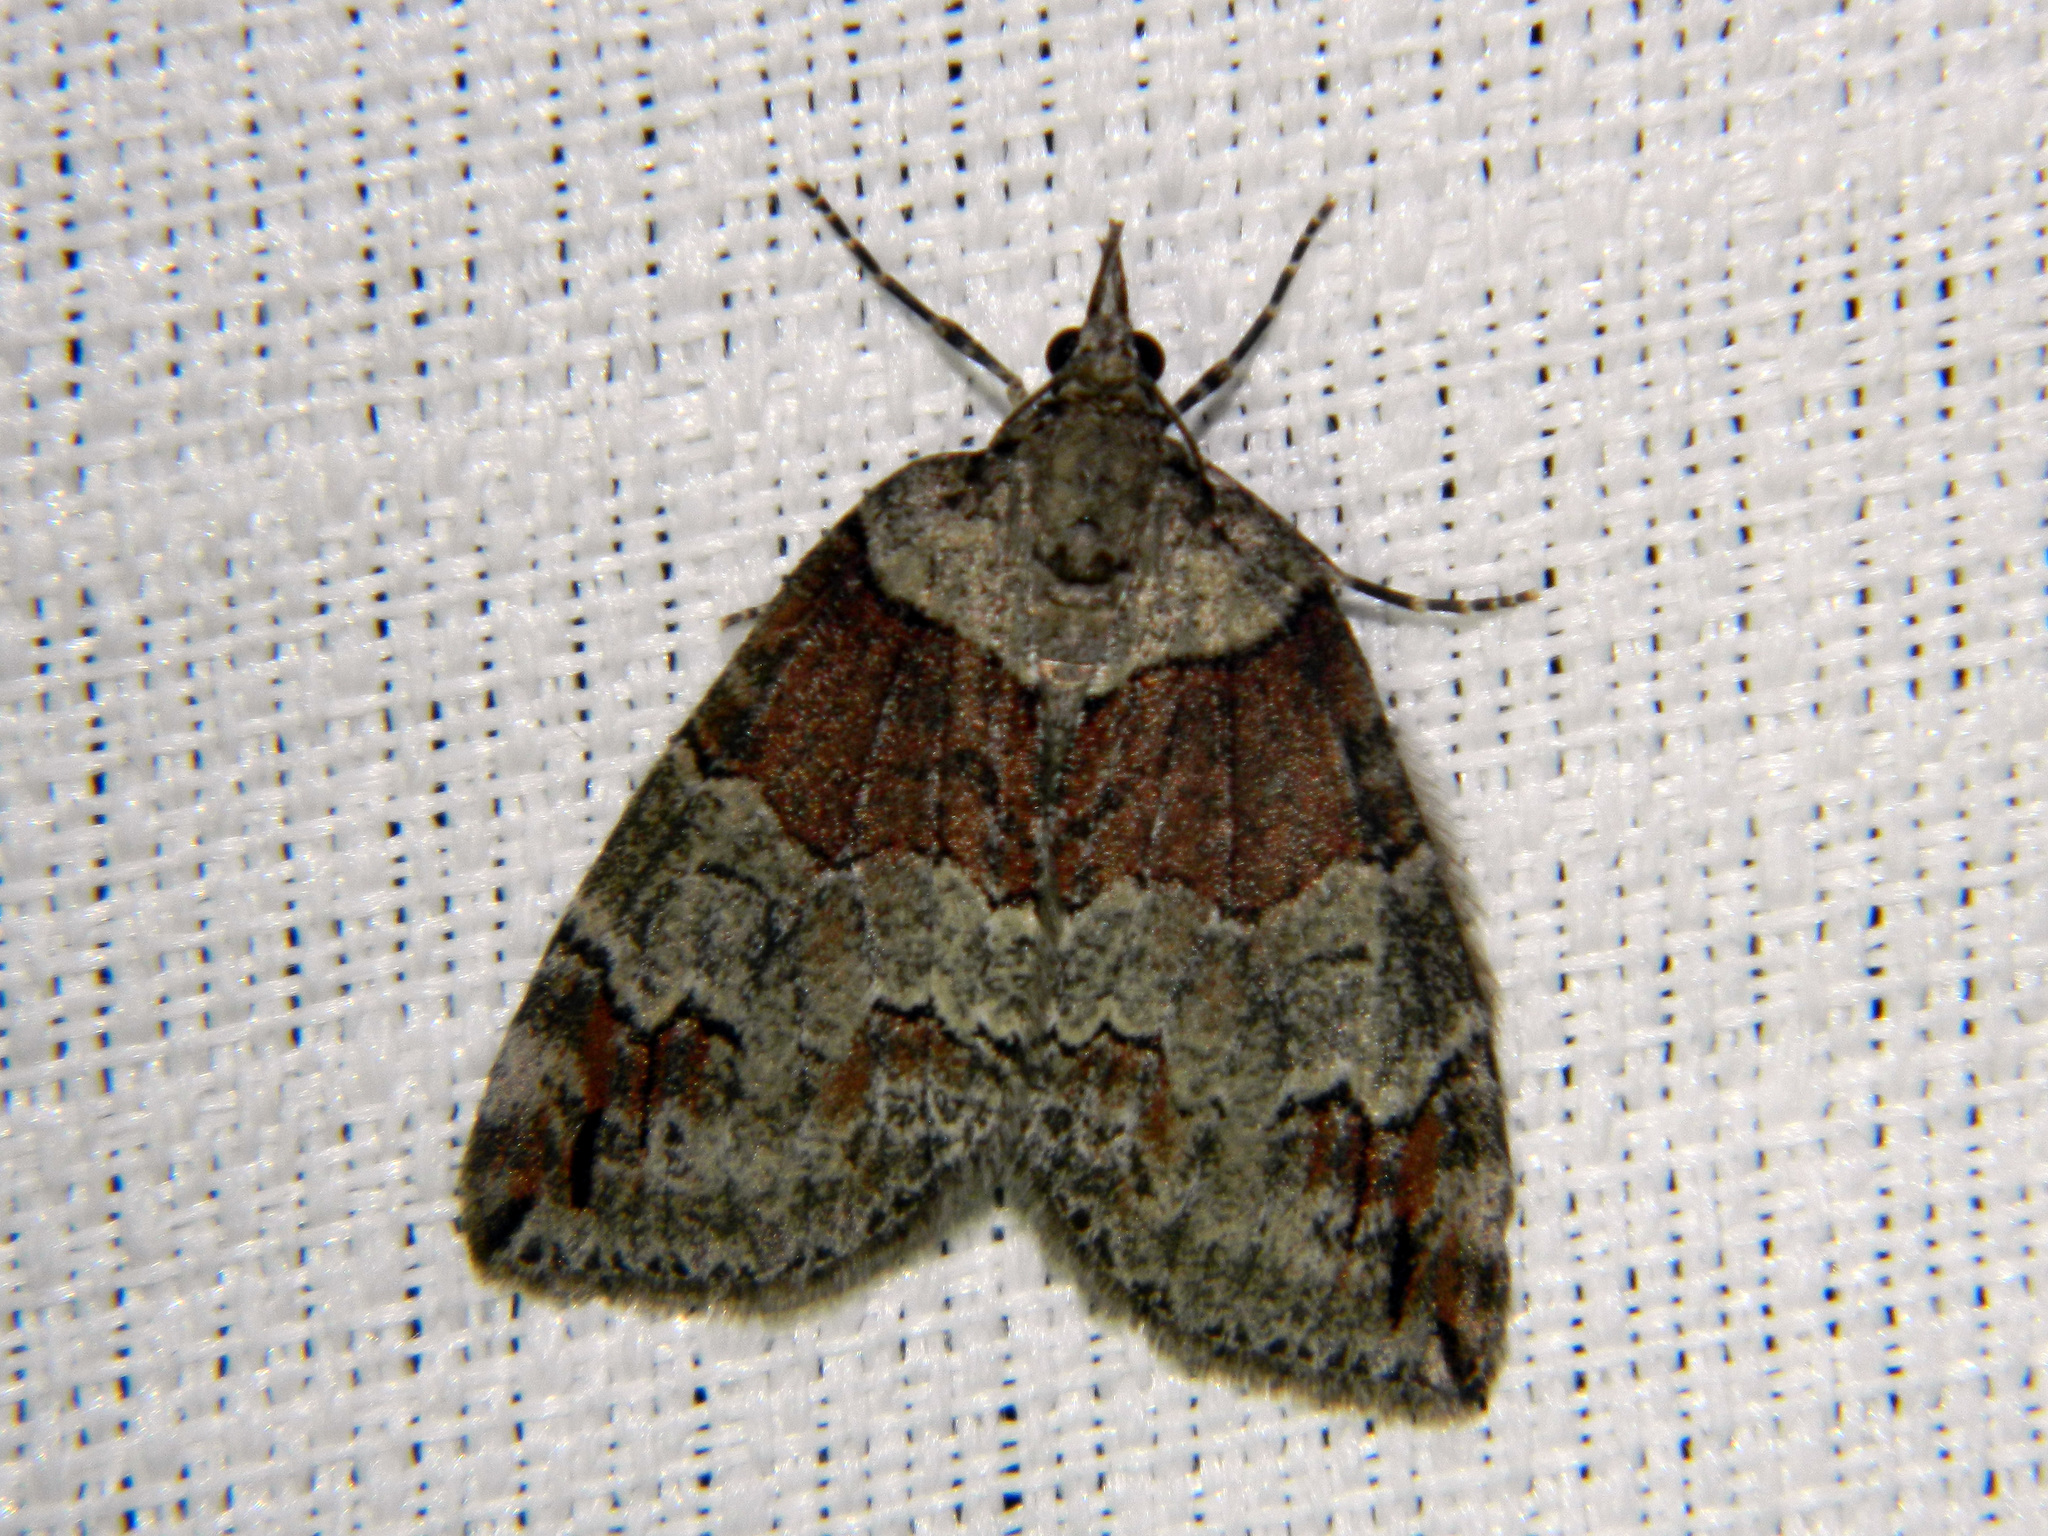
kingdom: Animalia
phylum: Arthropoda
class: Insecta
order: Lepidoptera
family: Geometridae
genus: Hydriomena
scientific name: Hydriomena ruberata
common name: Ruddy highflyer
